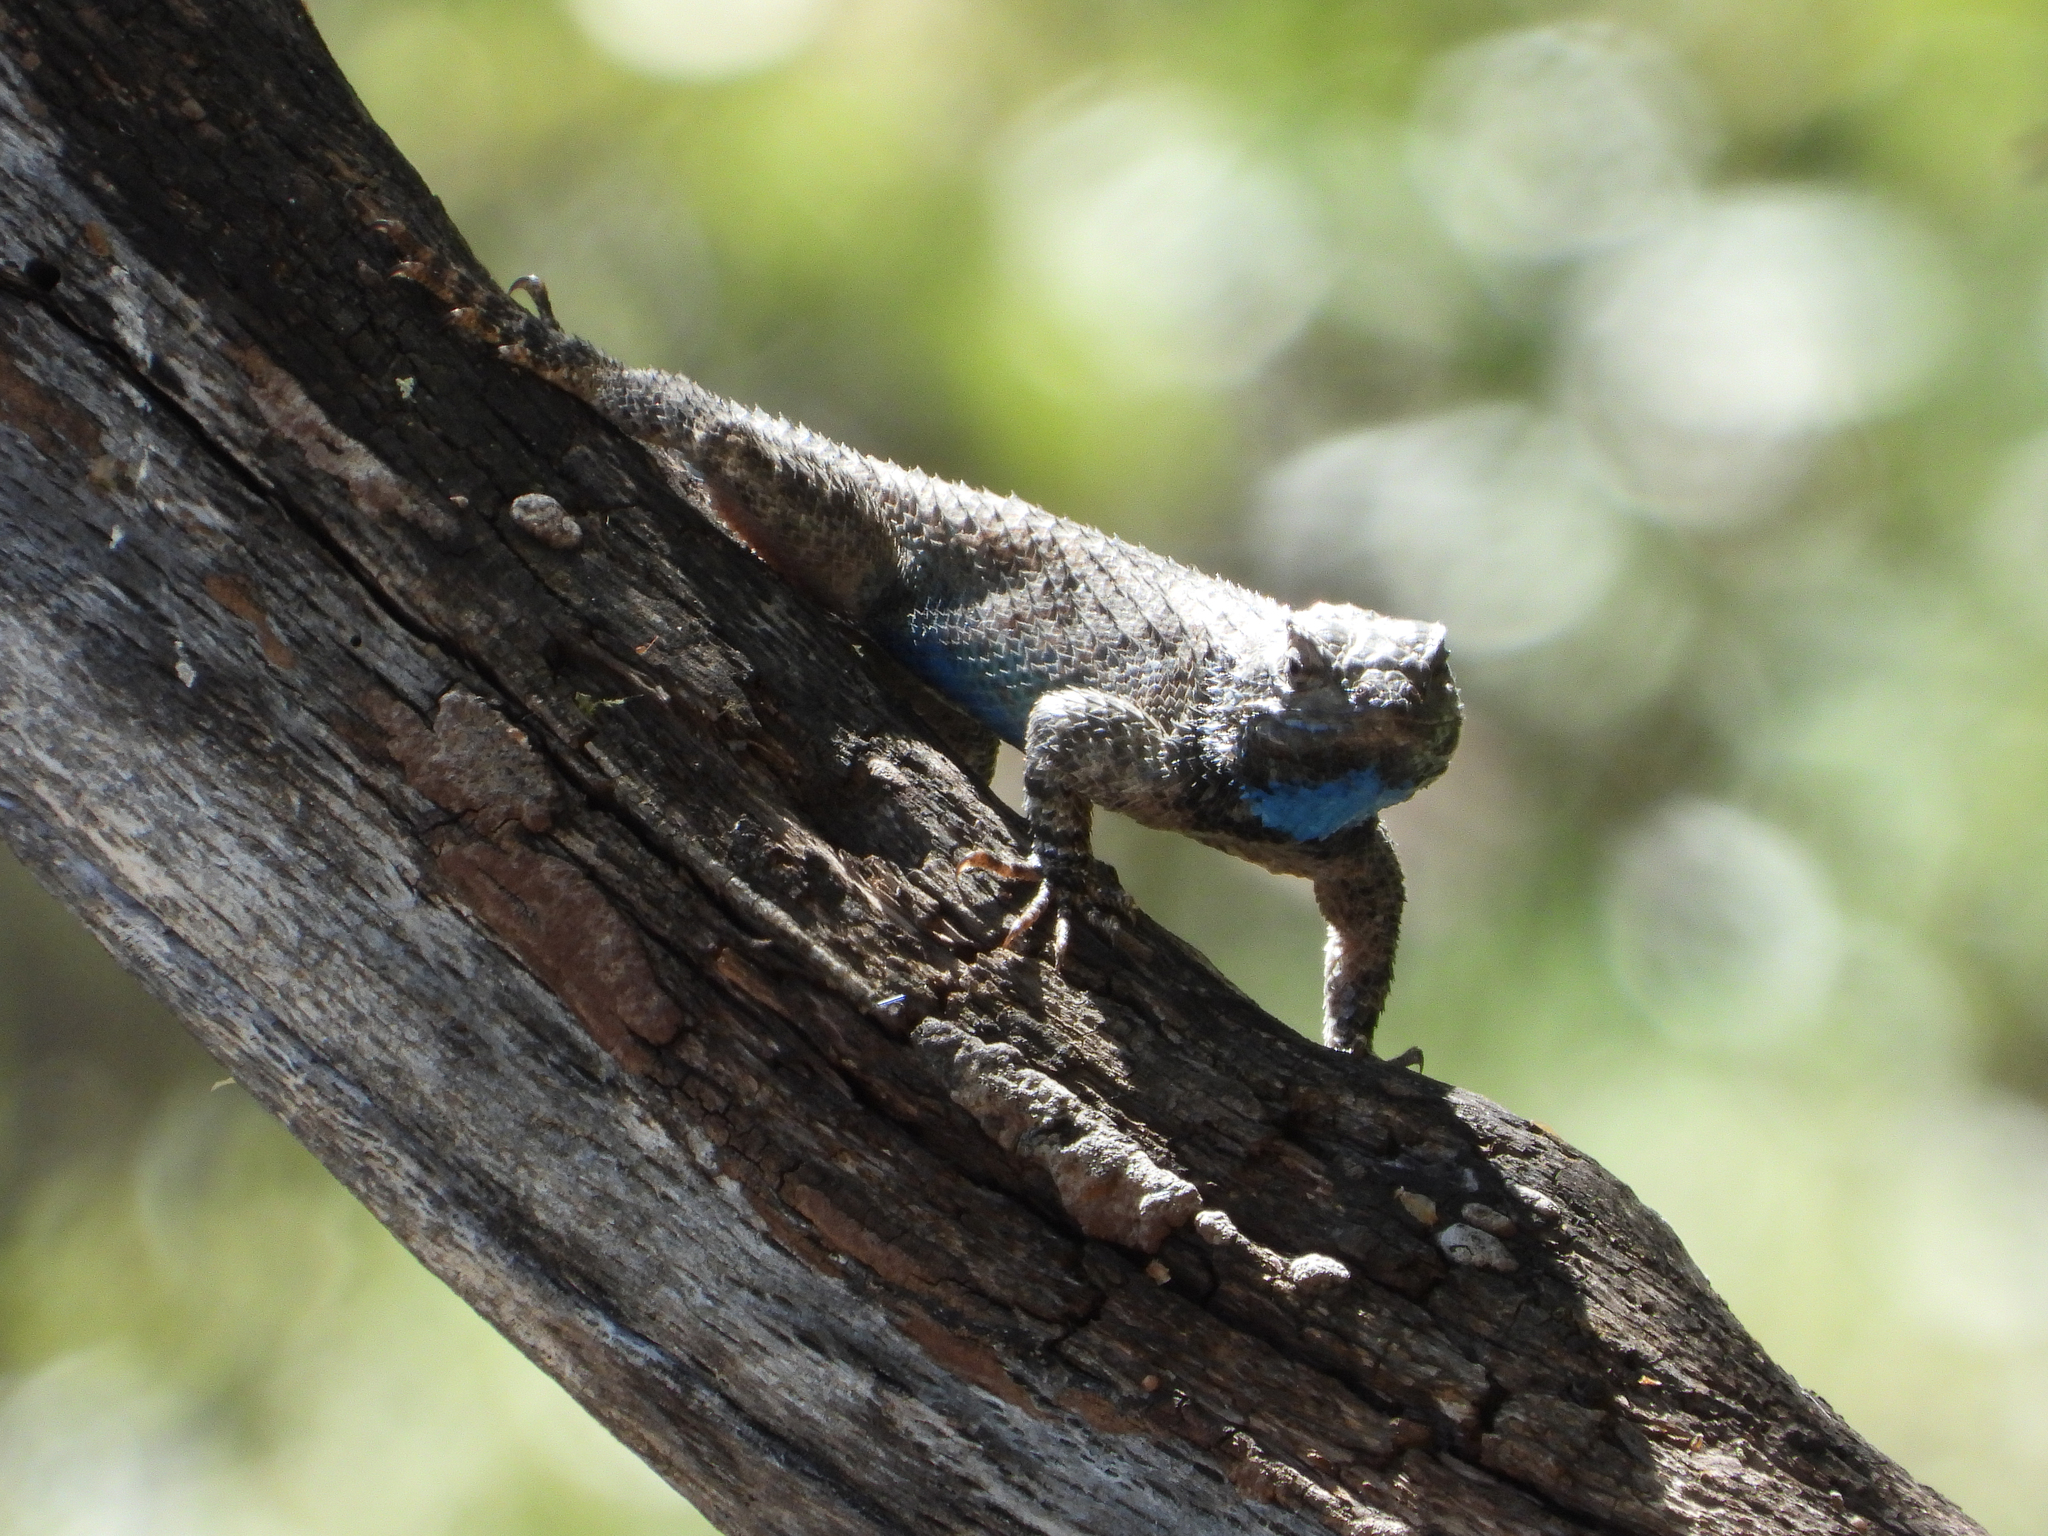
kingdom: Animalia
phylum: Chordata
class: Squamata
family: Phrynosomatidae
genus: Sceloporus
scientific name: Sceloporus clarkii
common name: Clark's spiny lizard
